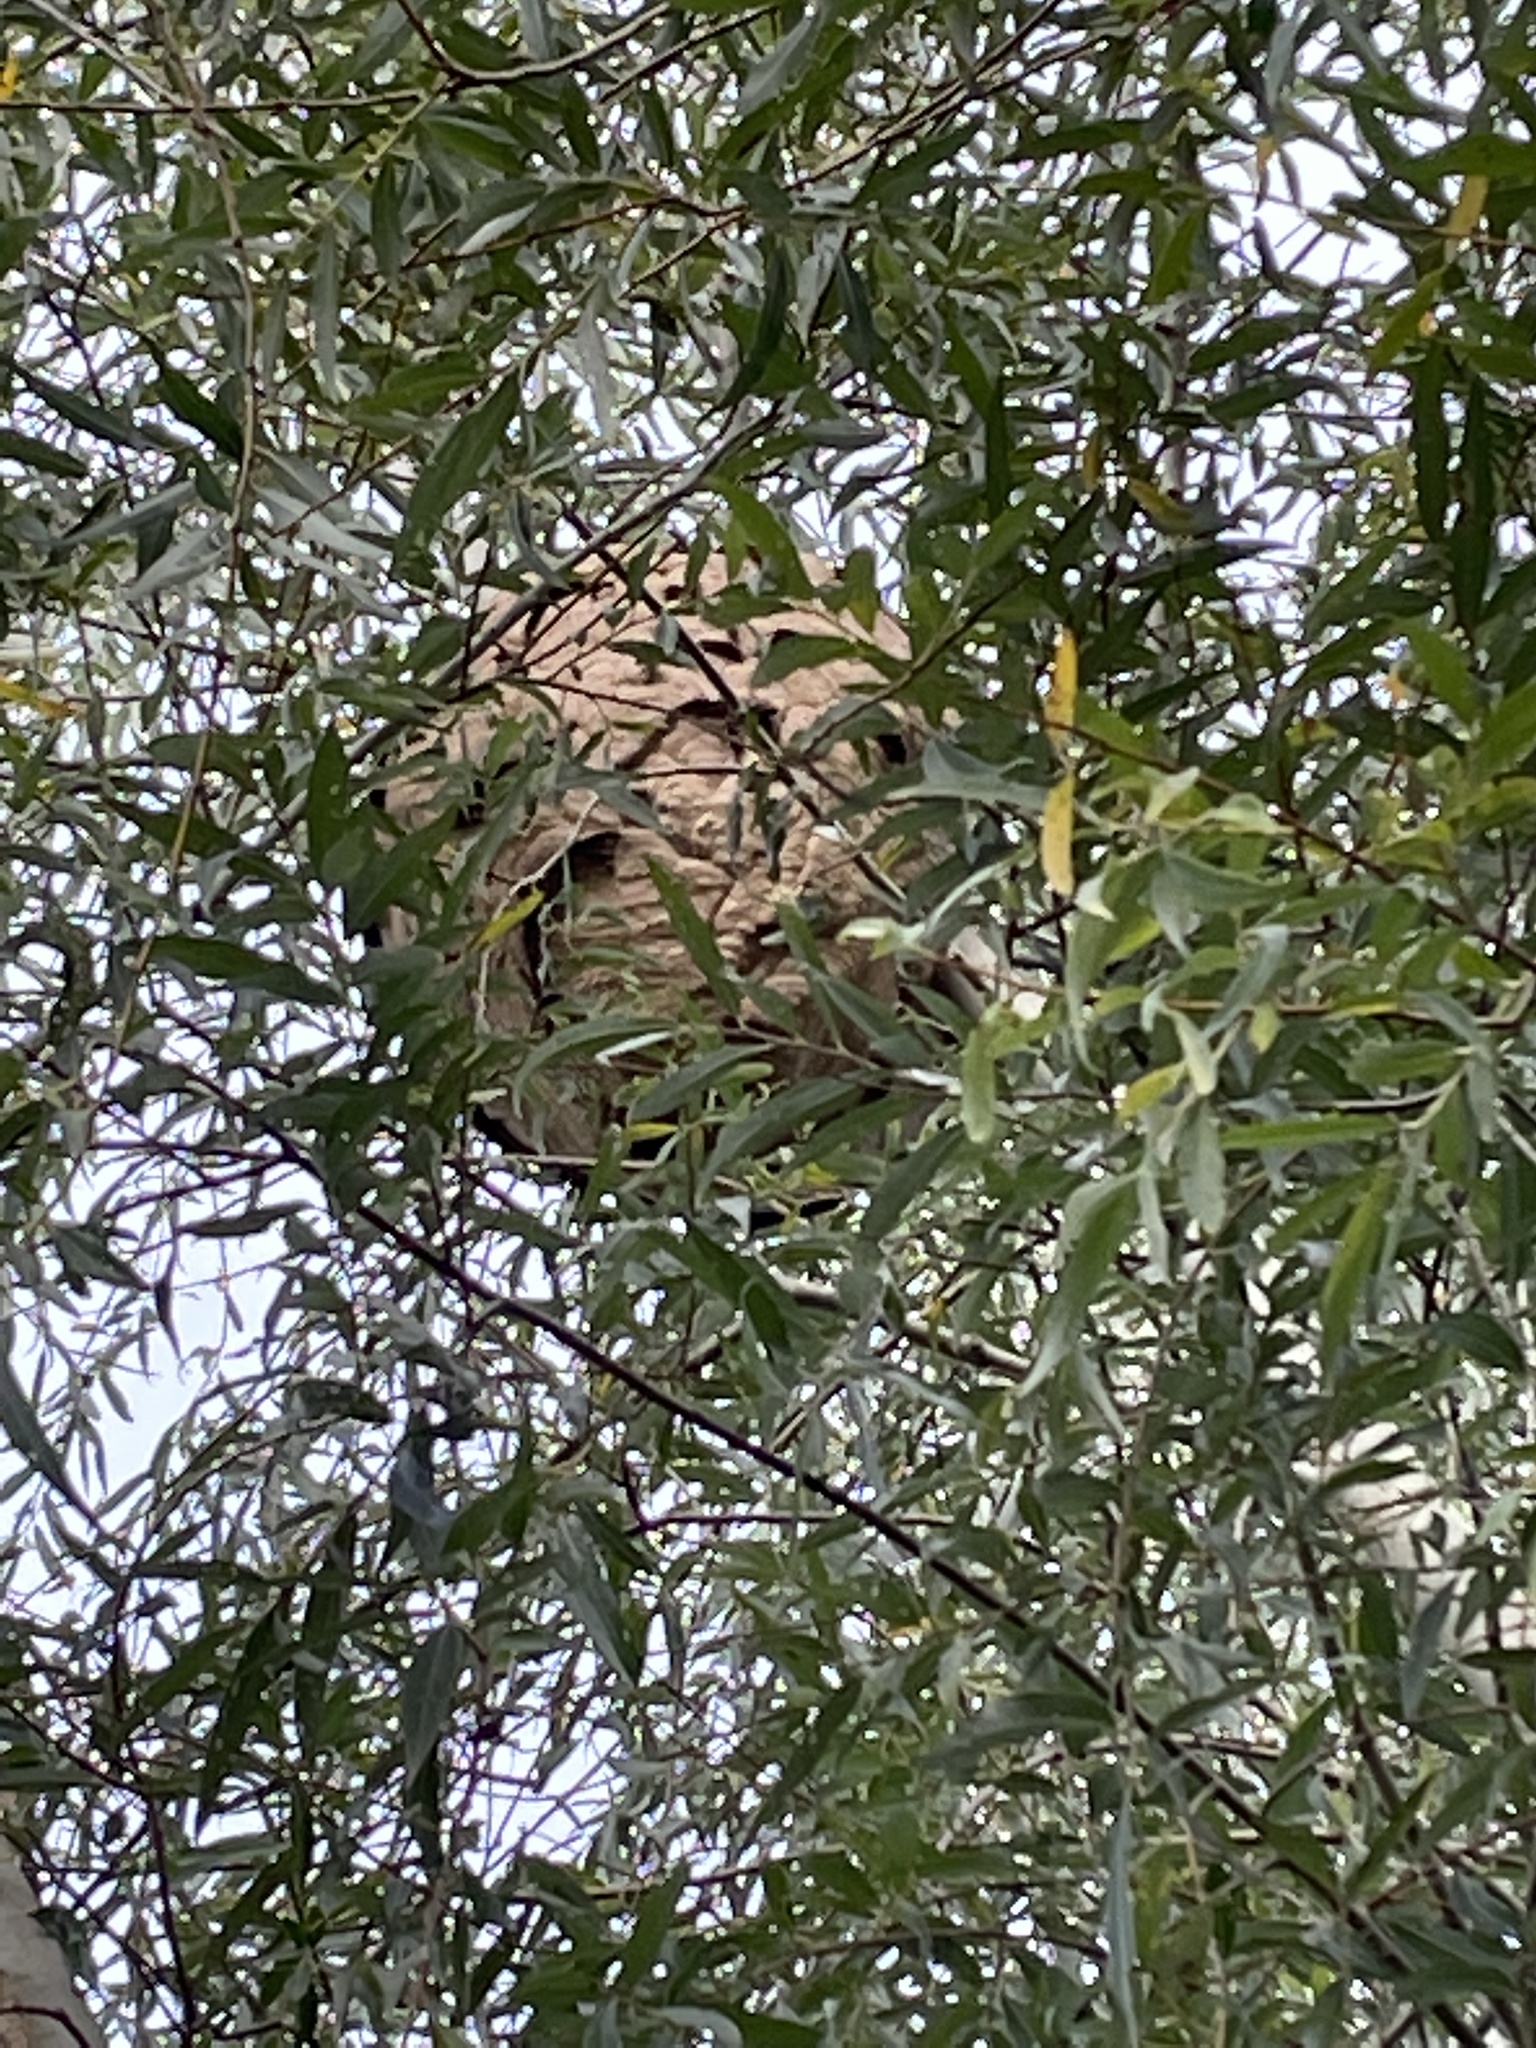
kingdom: Animalia
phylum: Arthropoda
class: Insecta
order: Hymenoptera
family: Vespidae
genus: Vespa
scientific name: Vespa velutina
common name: Asian hornet
